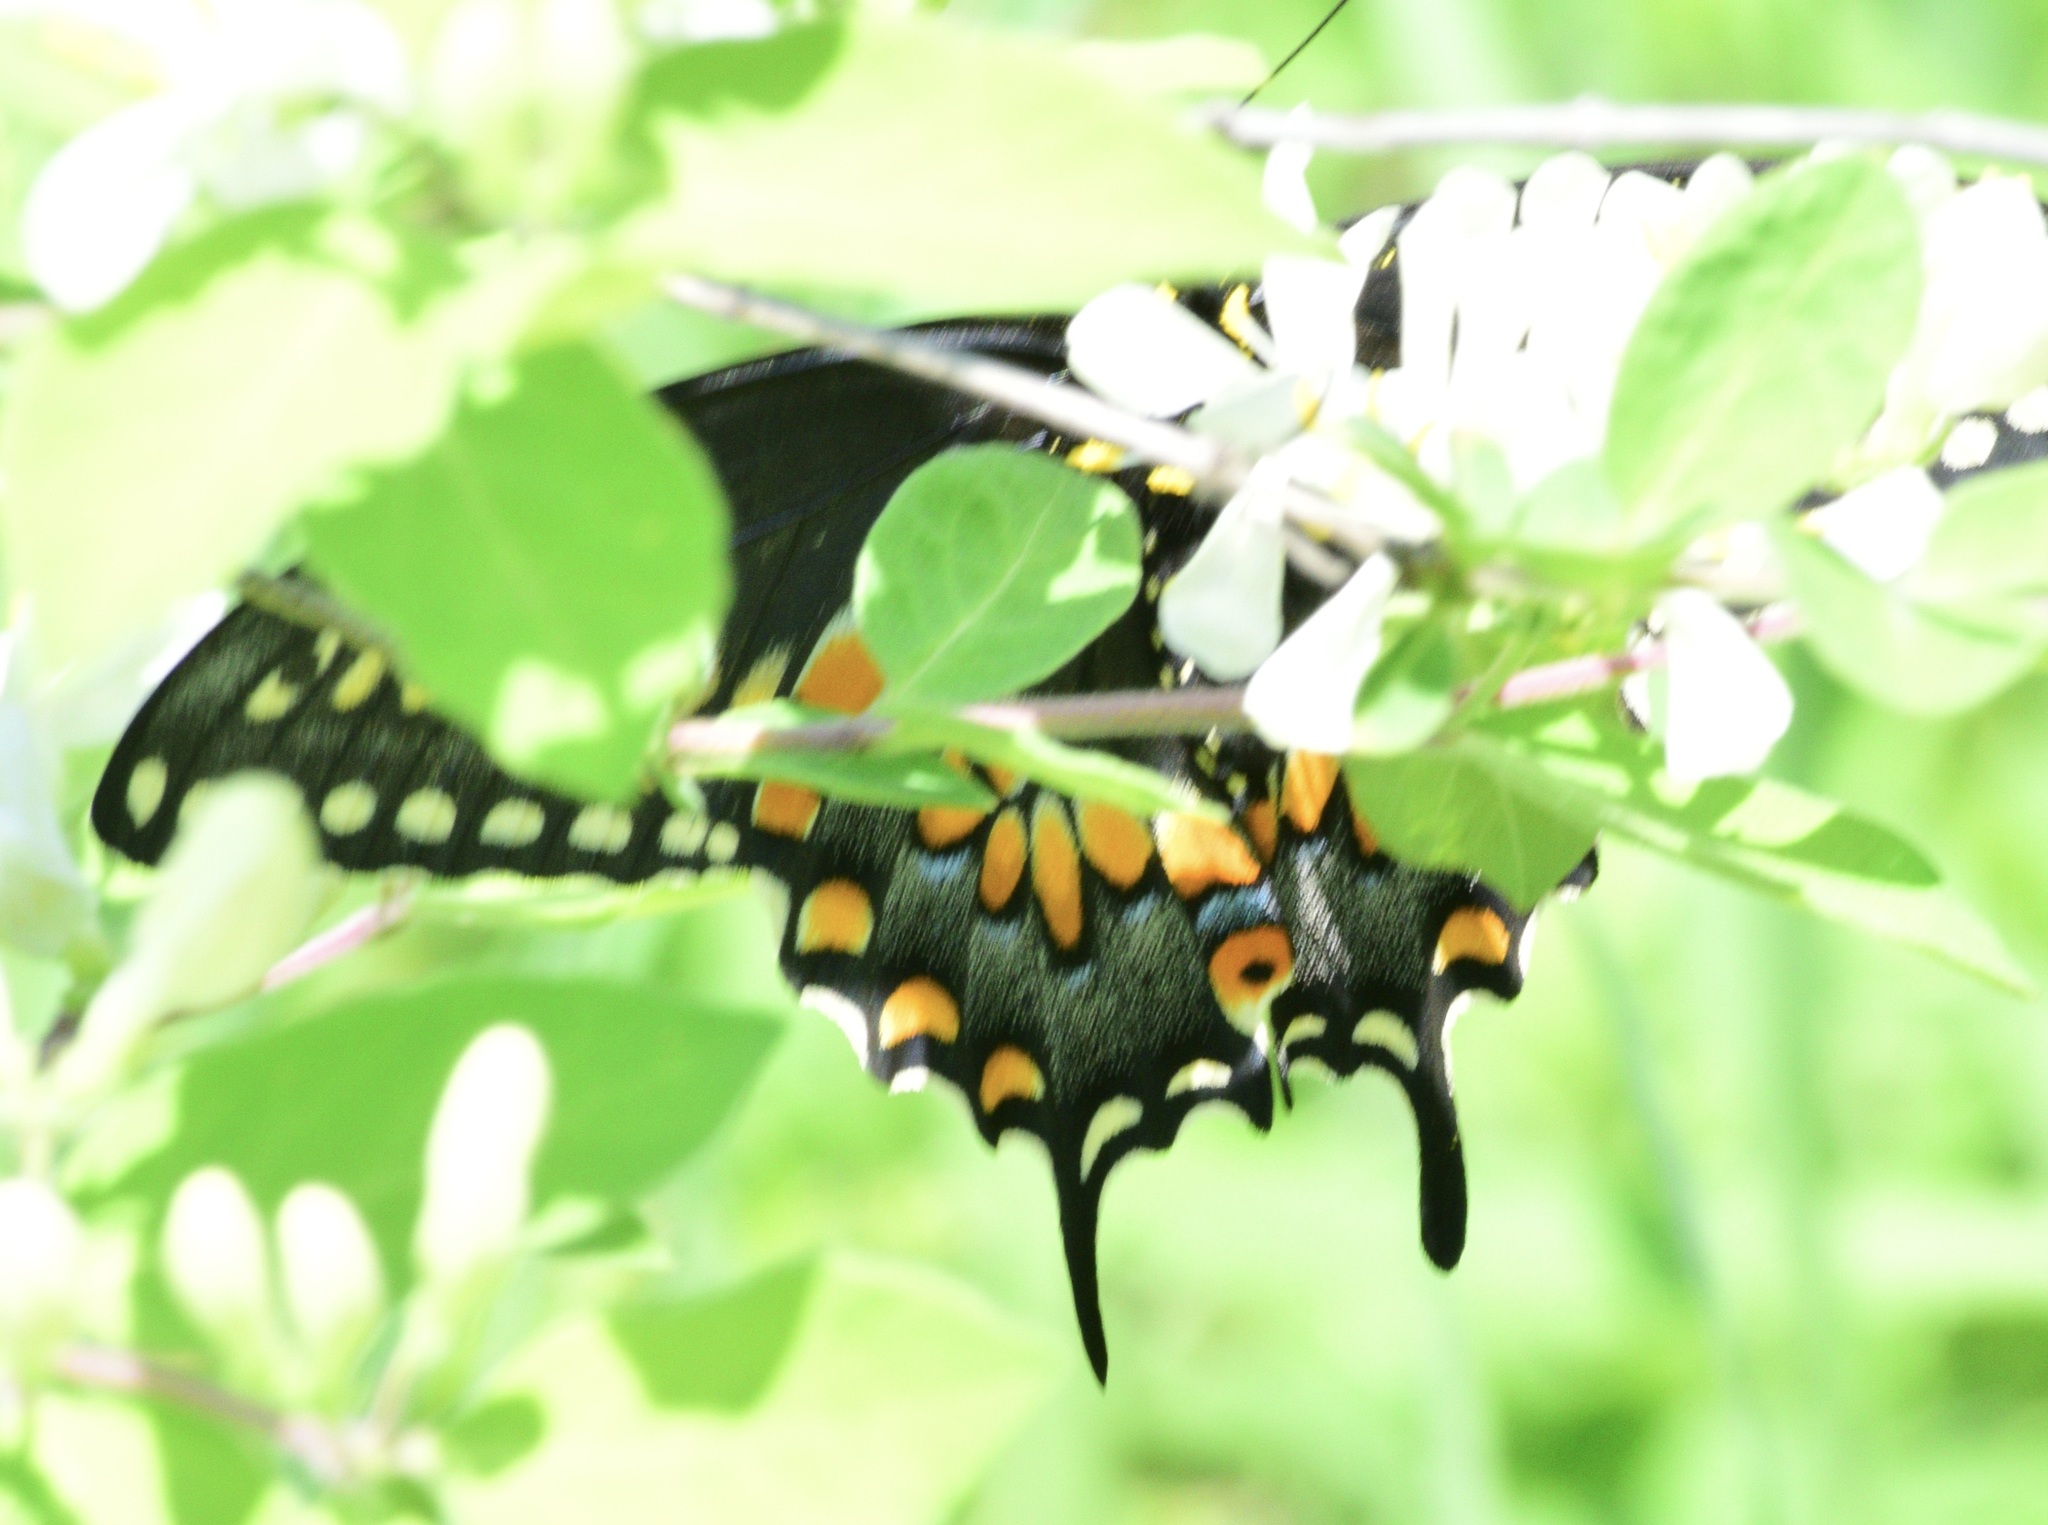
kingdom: Animalia
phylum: Arthropoda
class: Insecta
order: Lepidoptera
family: Papilionidae
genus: Papilio
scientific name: Papilio polyxenes
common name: Black swallowtail
